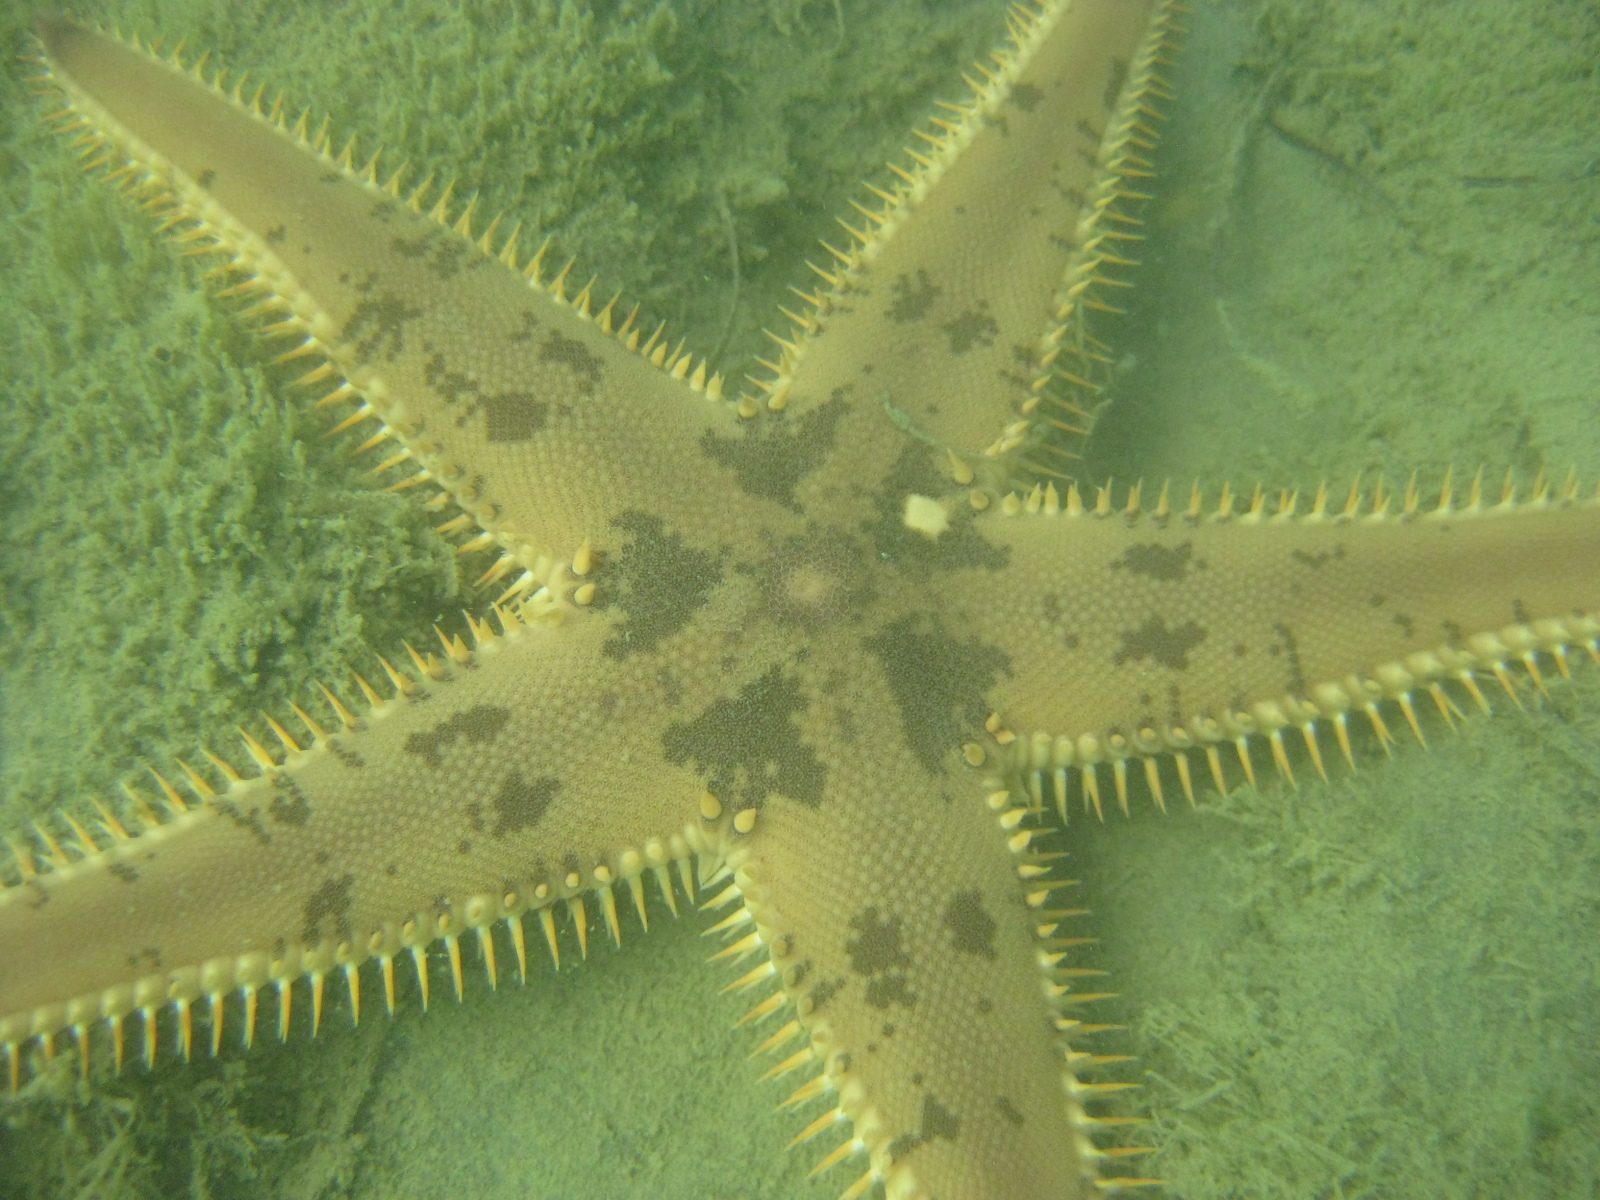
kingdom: Animalia
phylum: Echinodermata
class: Asteroidea
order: Paxillosida
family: Astropectinidae
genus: Astropecten
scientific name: Astropecten polyacanthus
